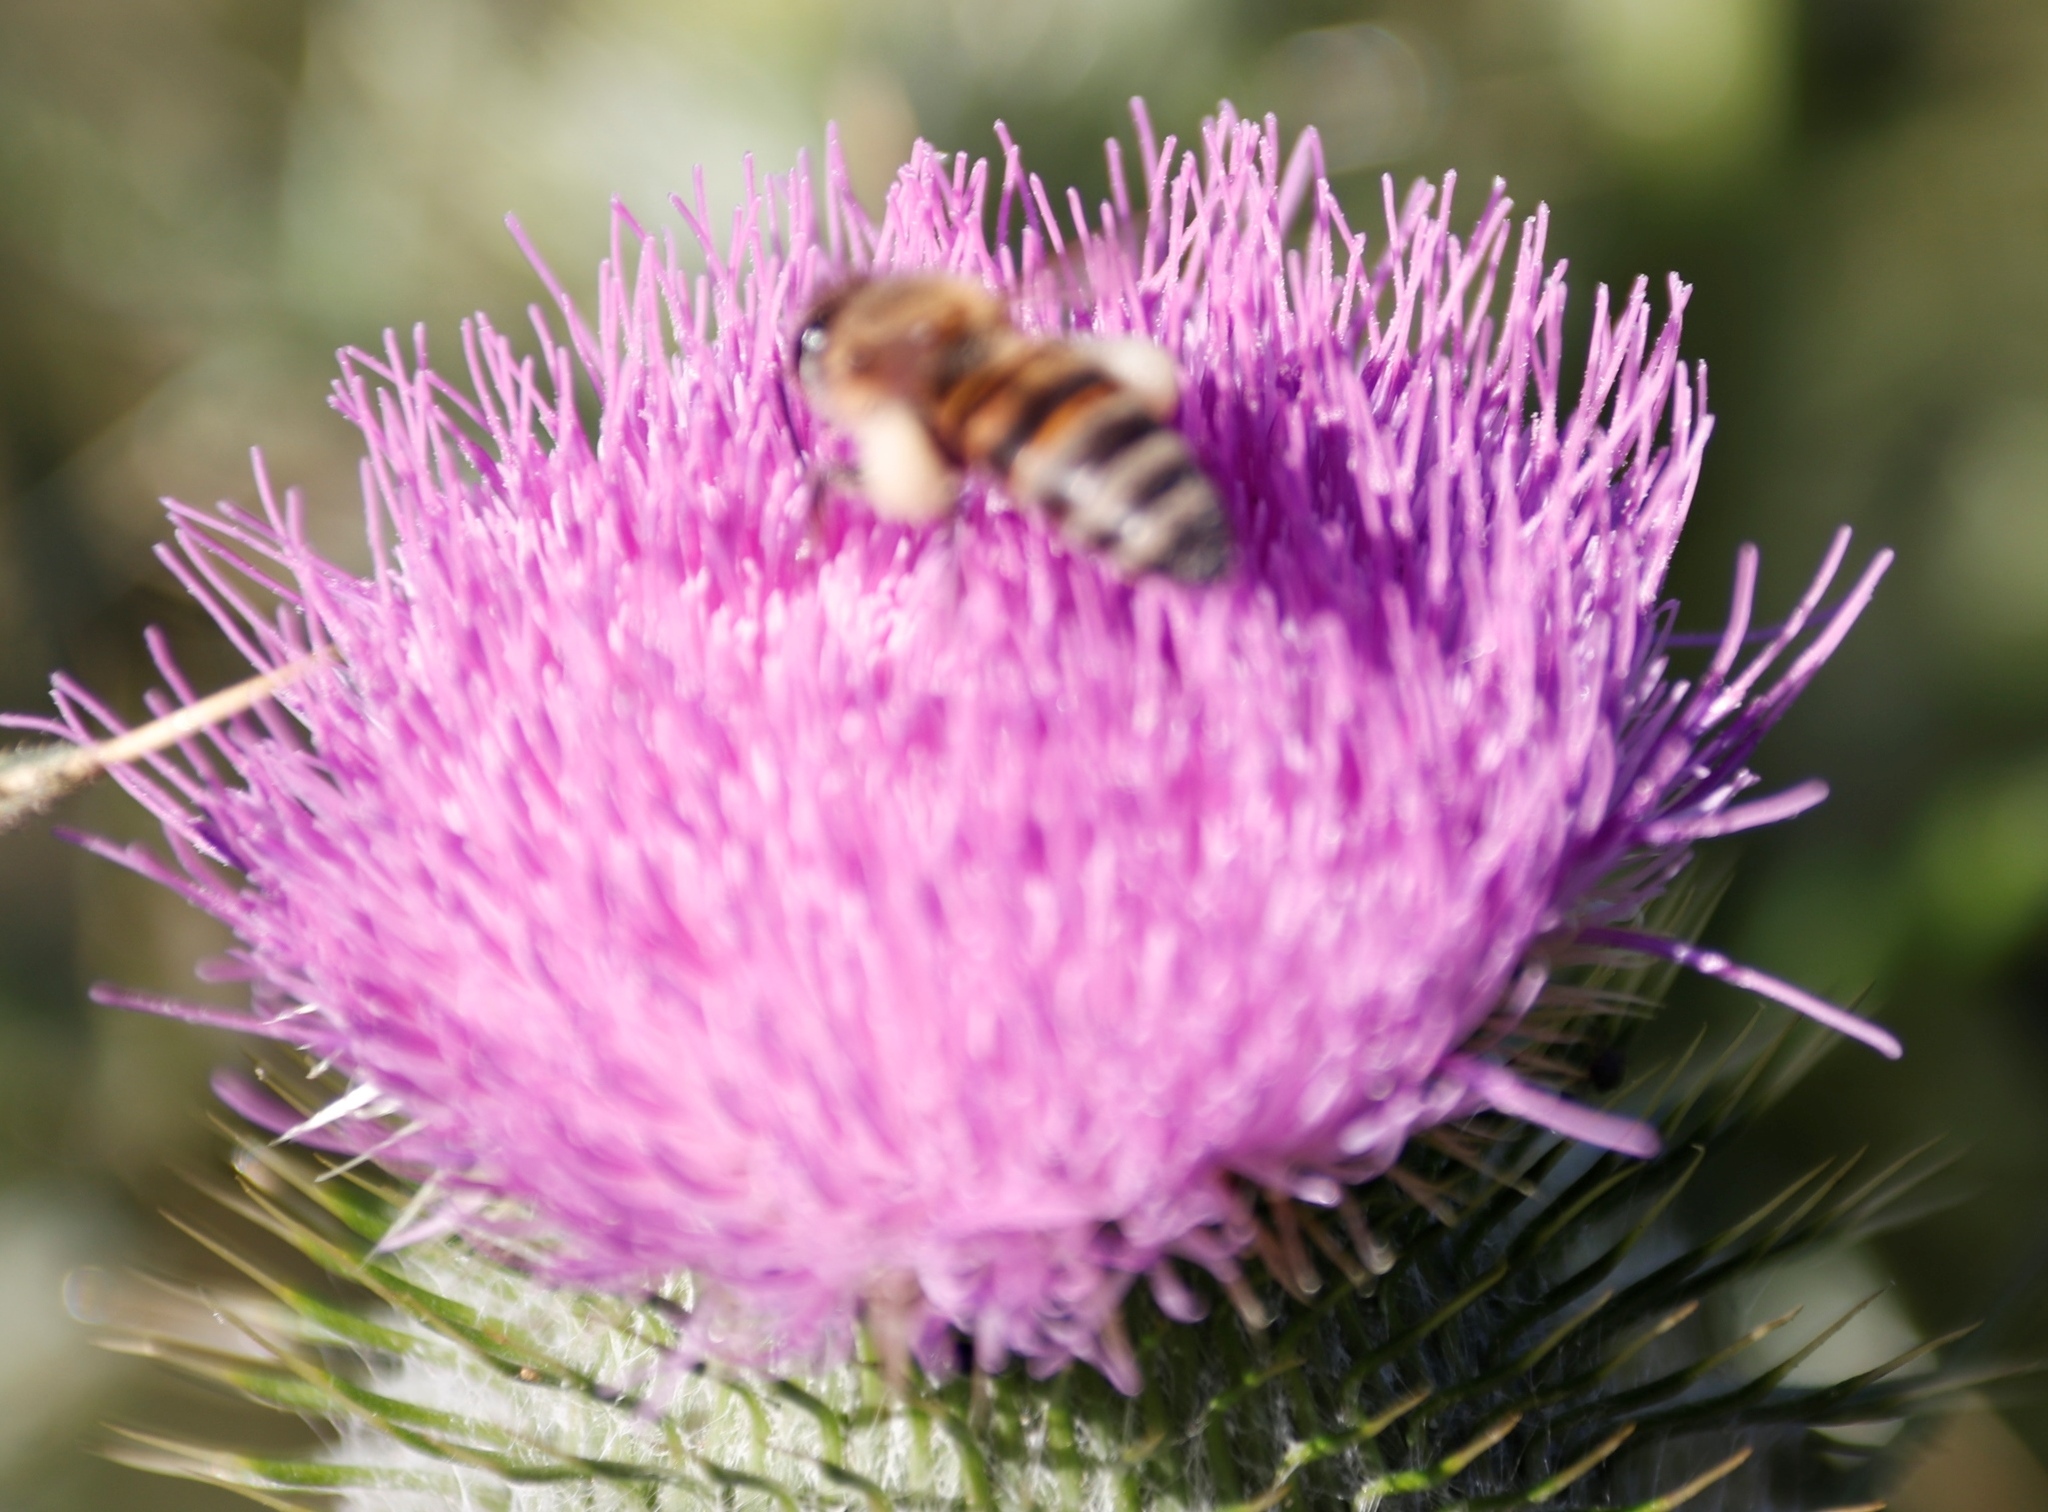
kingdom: Animalia
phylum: Arthropoda
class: Insecta
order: Hymenoptera
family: Apidae
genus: Apis
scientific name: Apis mellifera
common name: Honey bee
